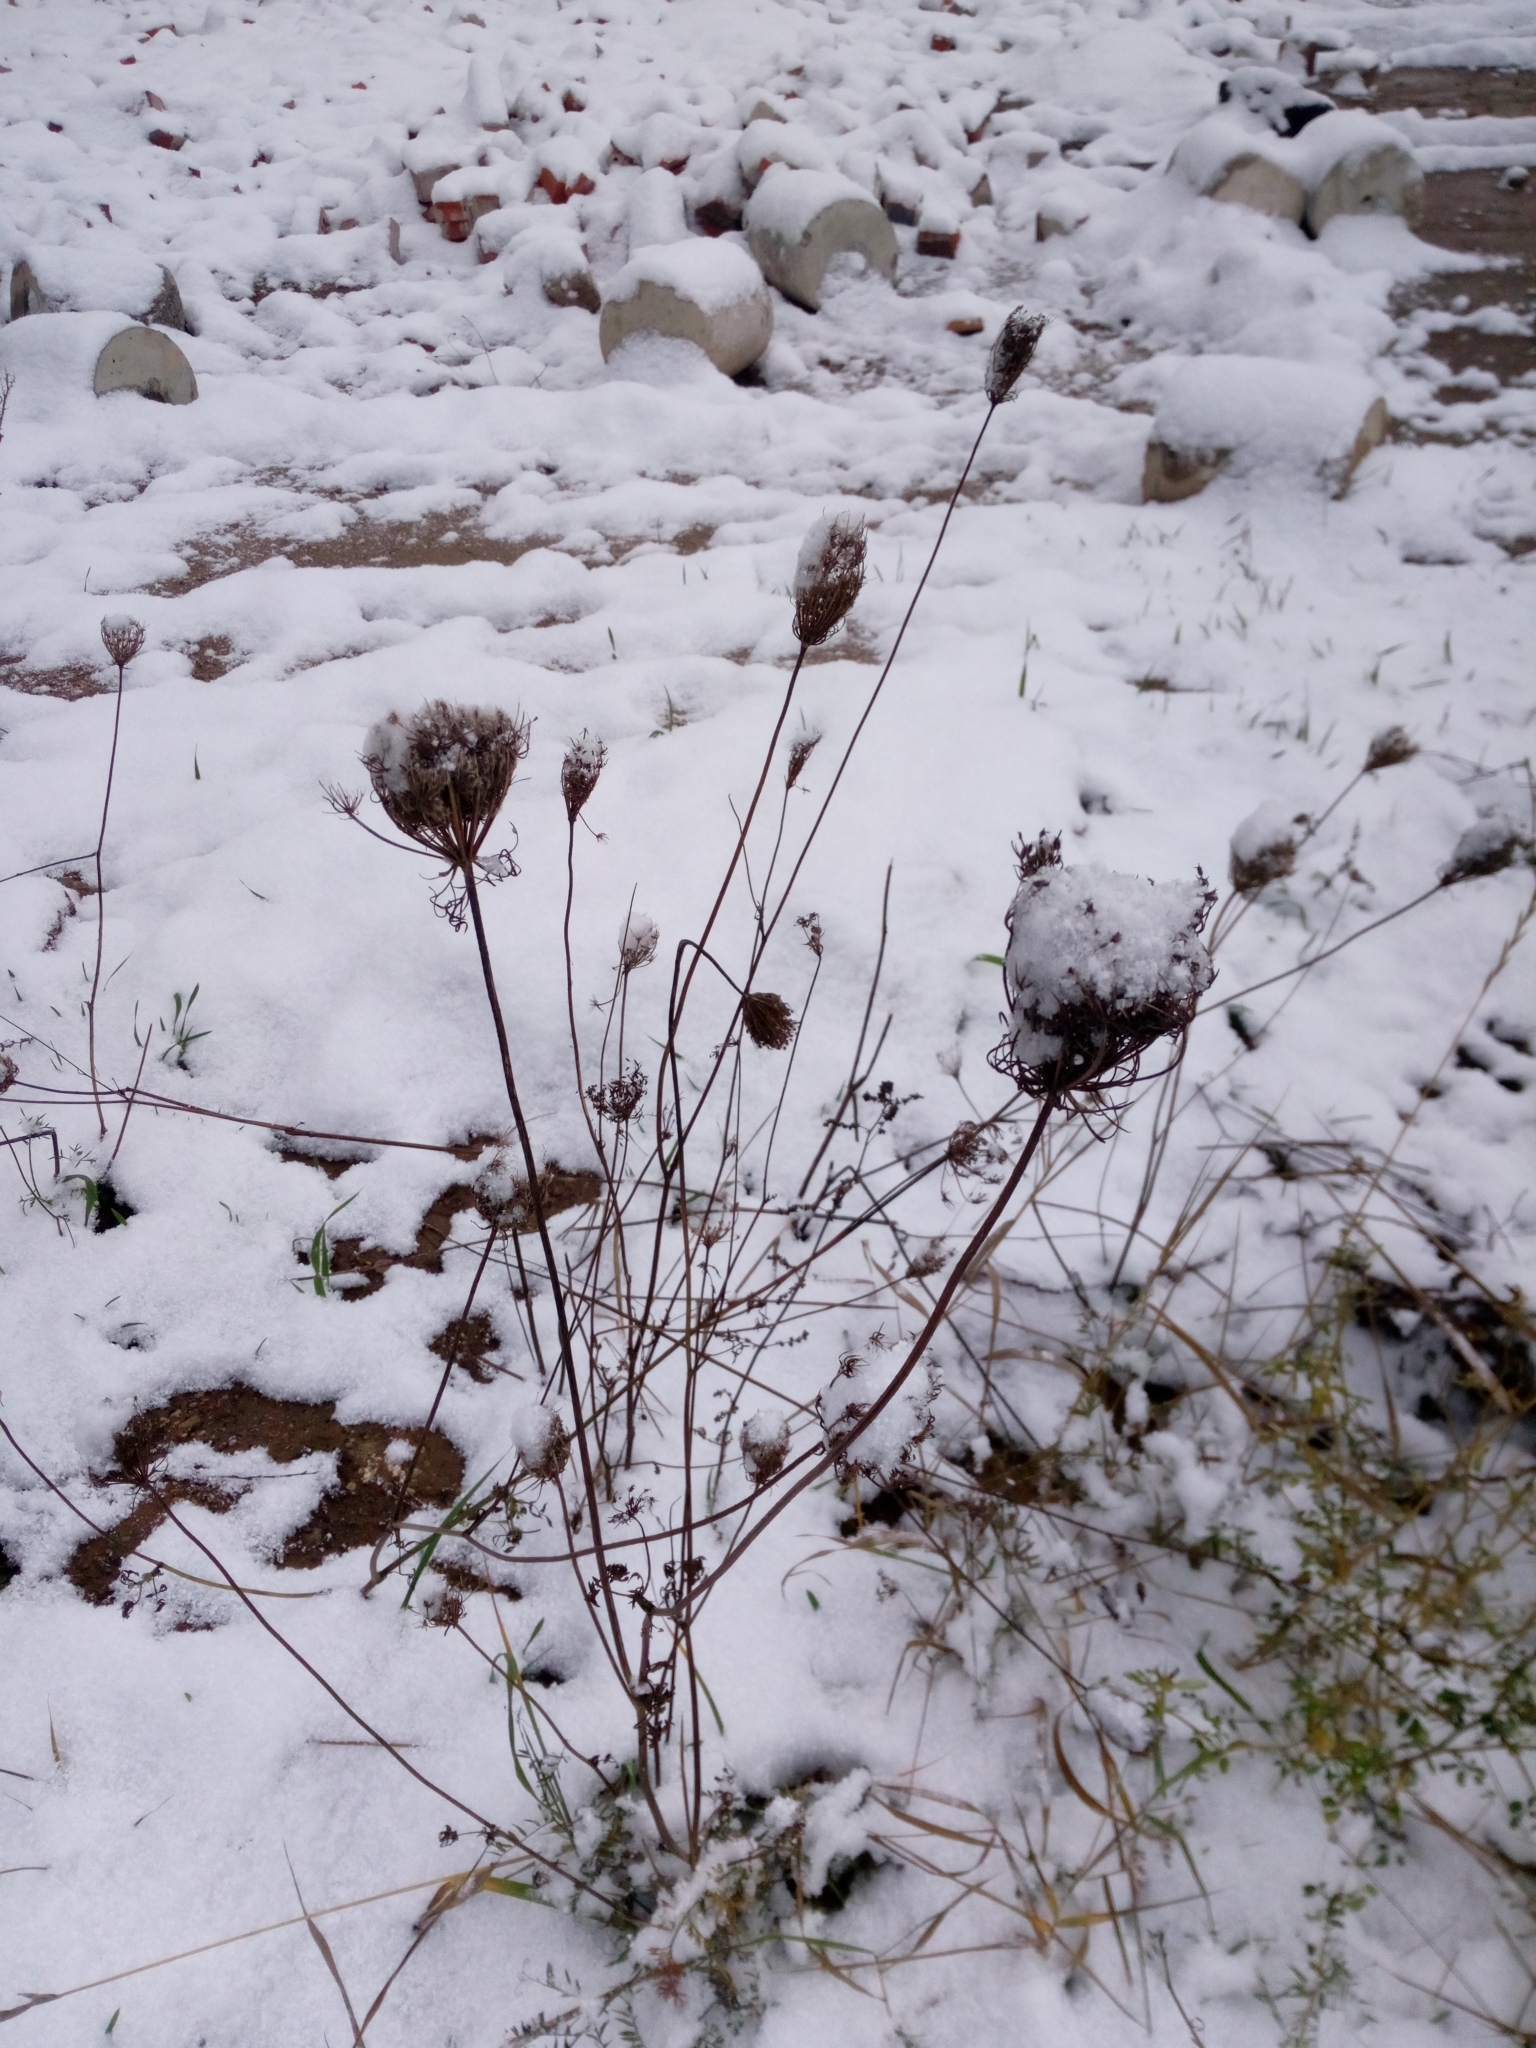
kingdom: Plantae
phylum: Tracheophyta
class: Magnoliopsida
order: Apiales
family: Apiaceae
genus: Daucus
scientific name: Daucus carota
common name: Wild carrot
